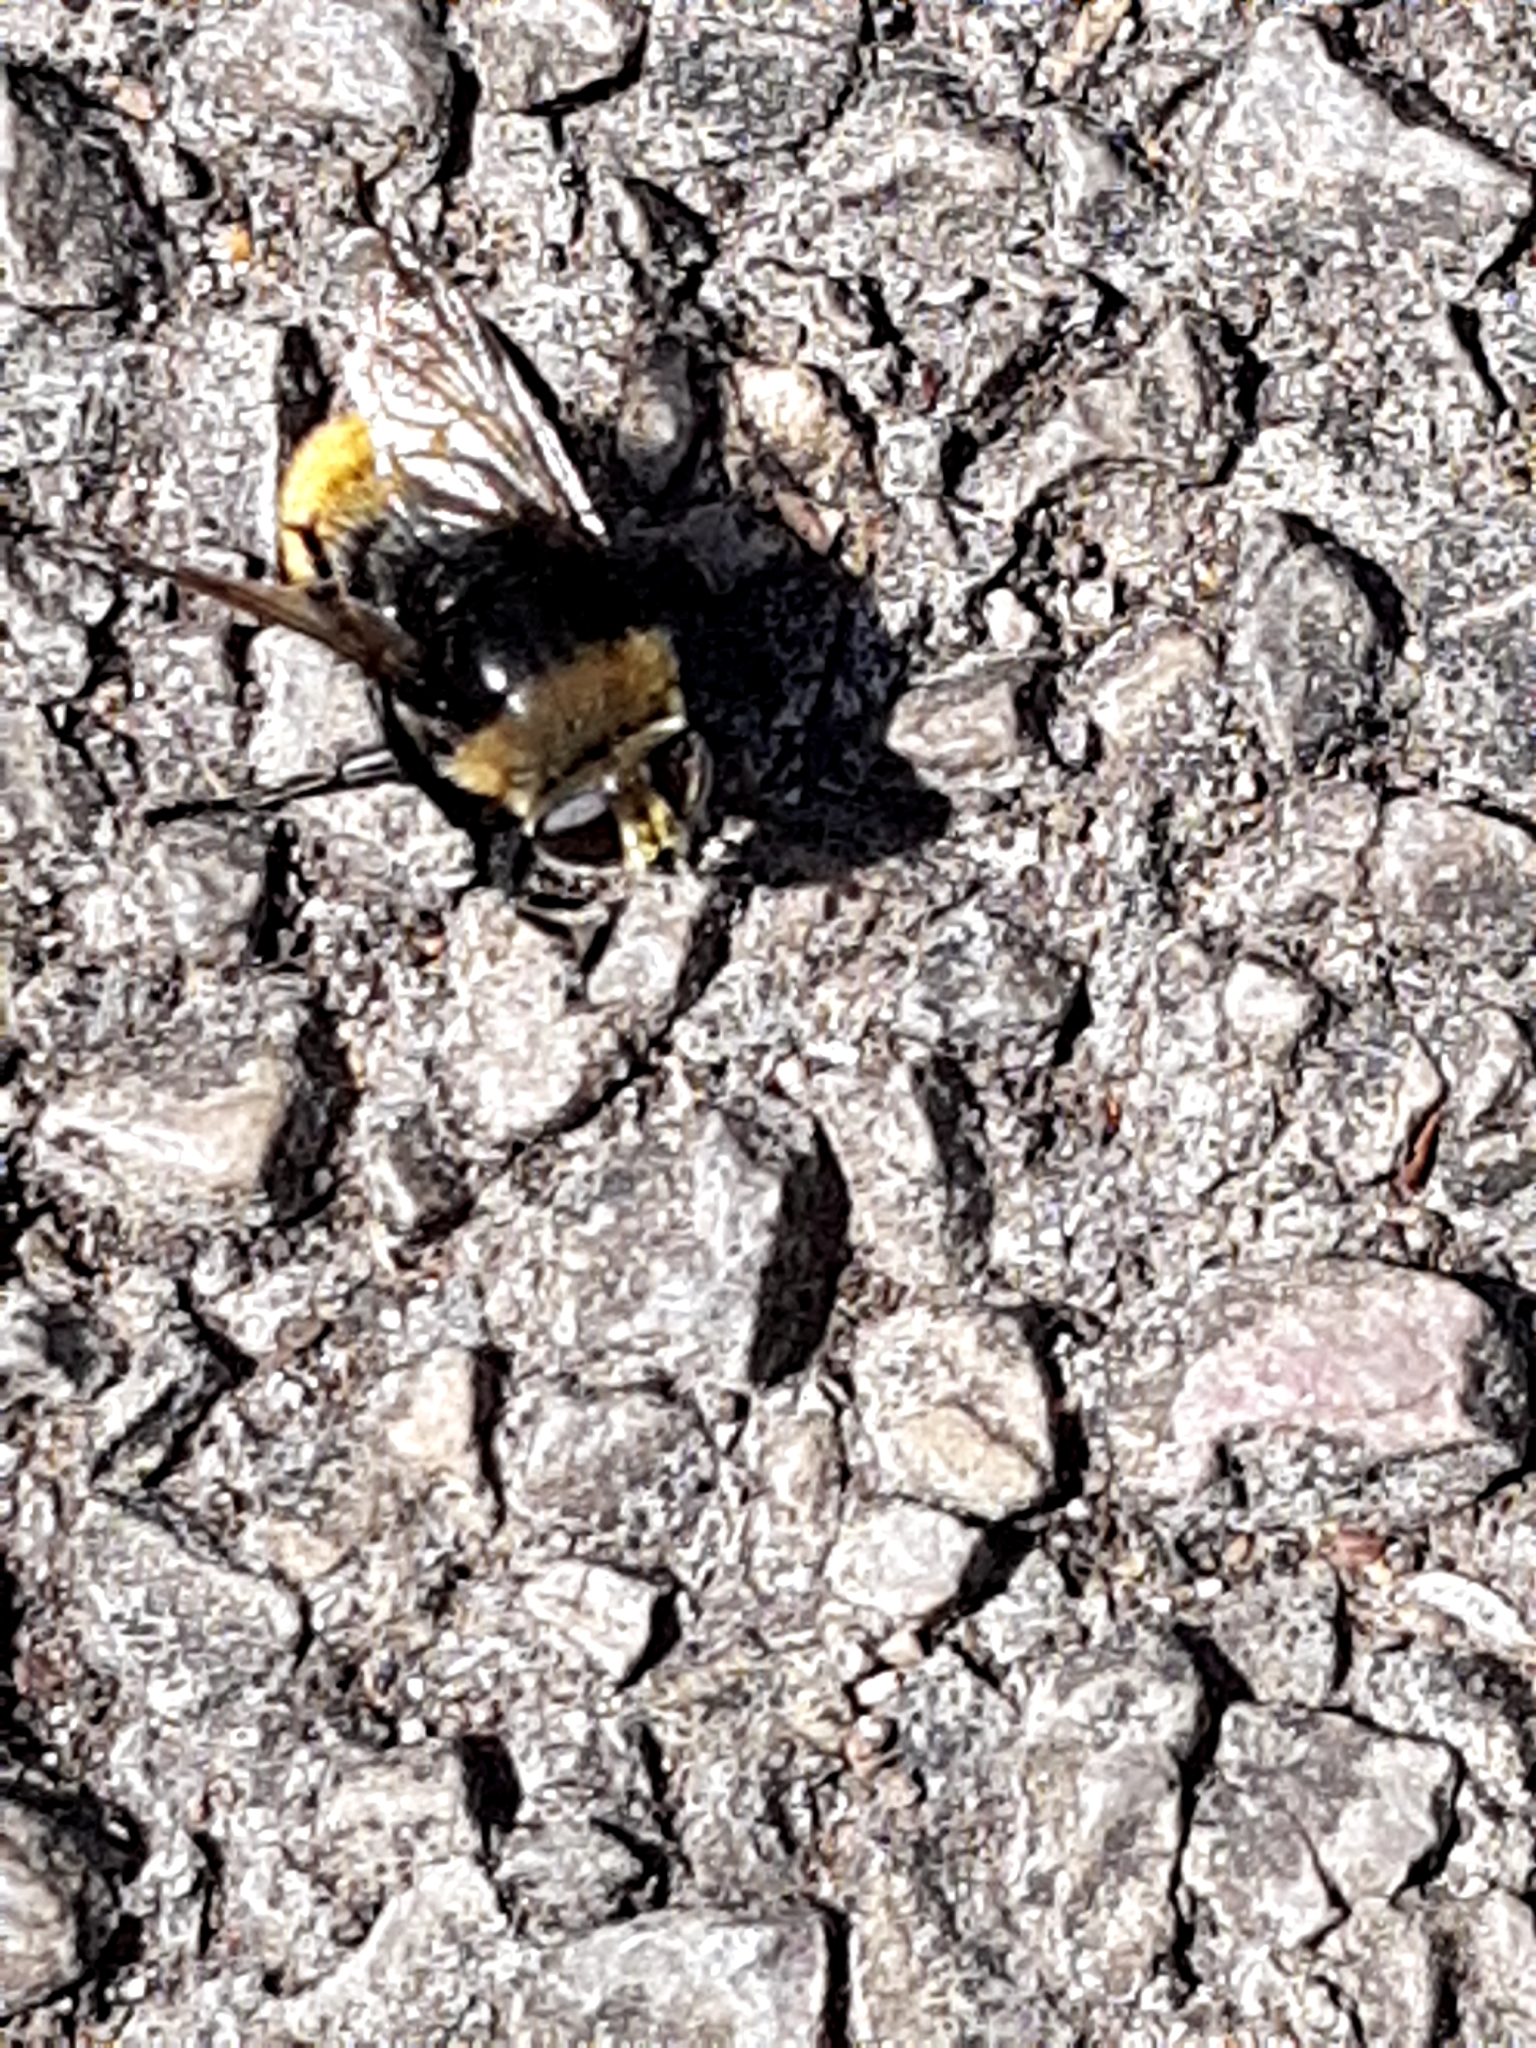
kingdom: Animalia
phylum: Arthropoda
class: Insecta
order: Diptera
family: Syrphidae
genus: Merodon
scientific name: Merodon equestris
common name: Greater bulb-fly
